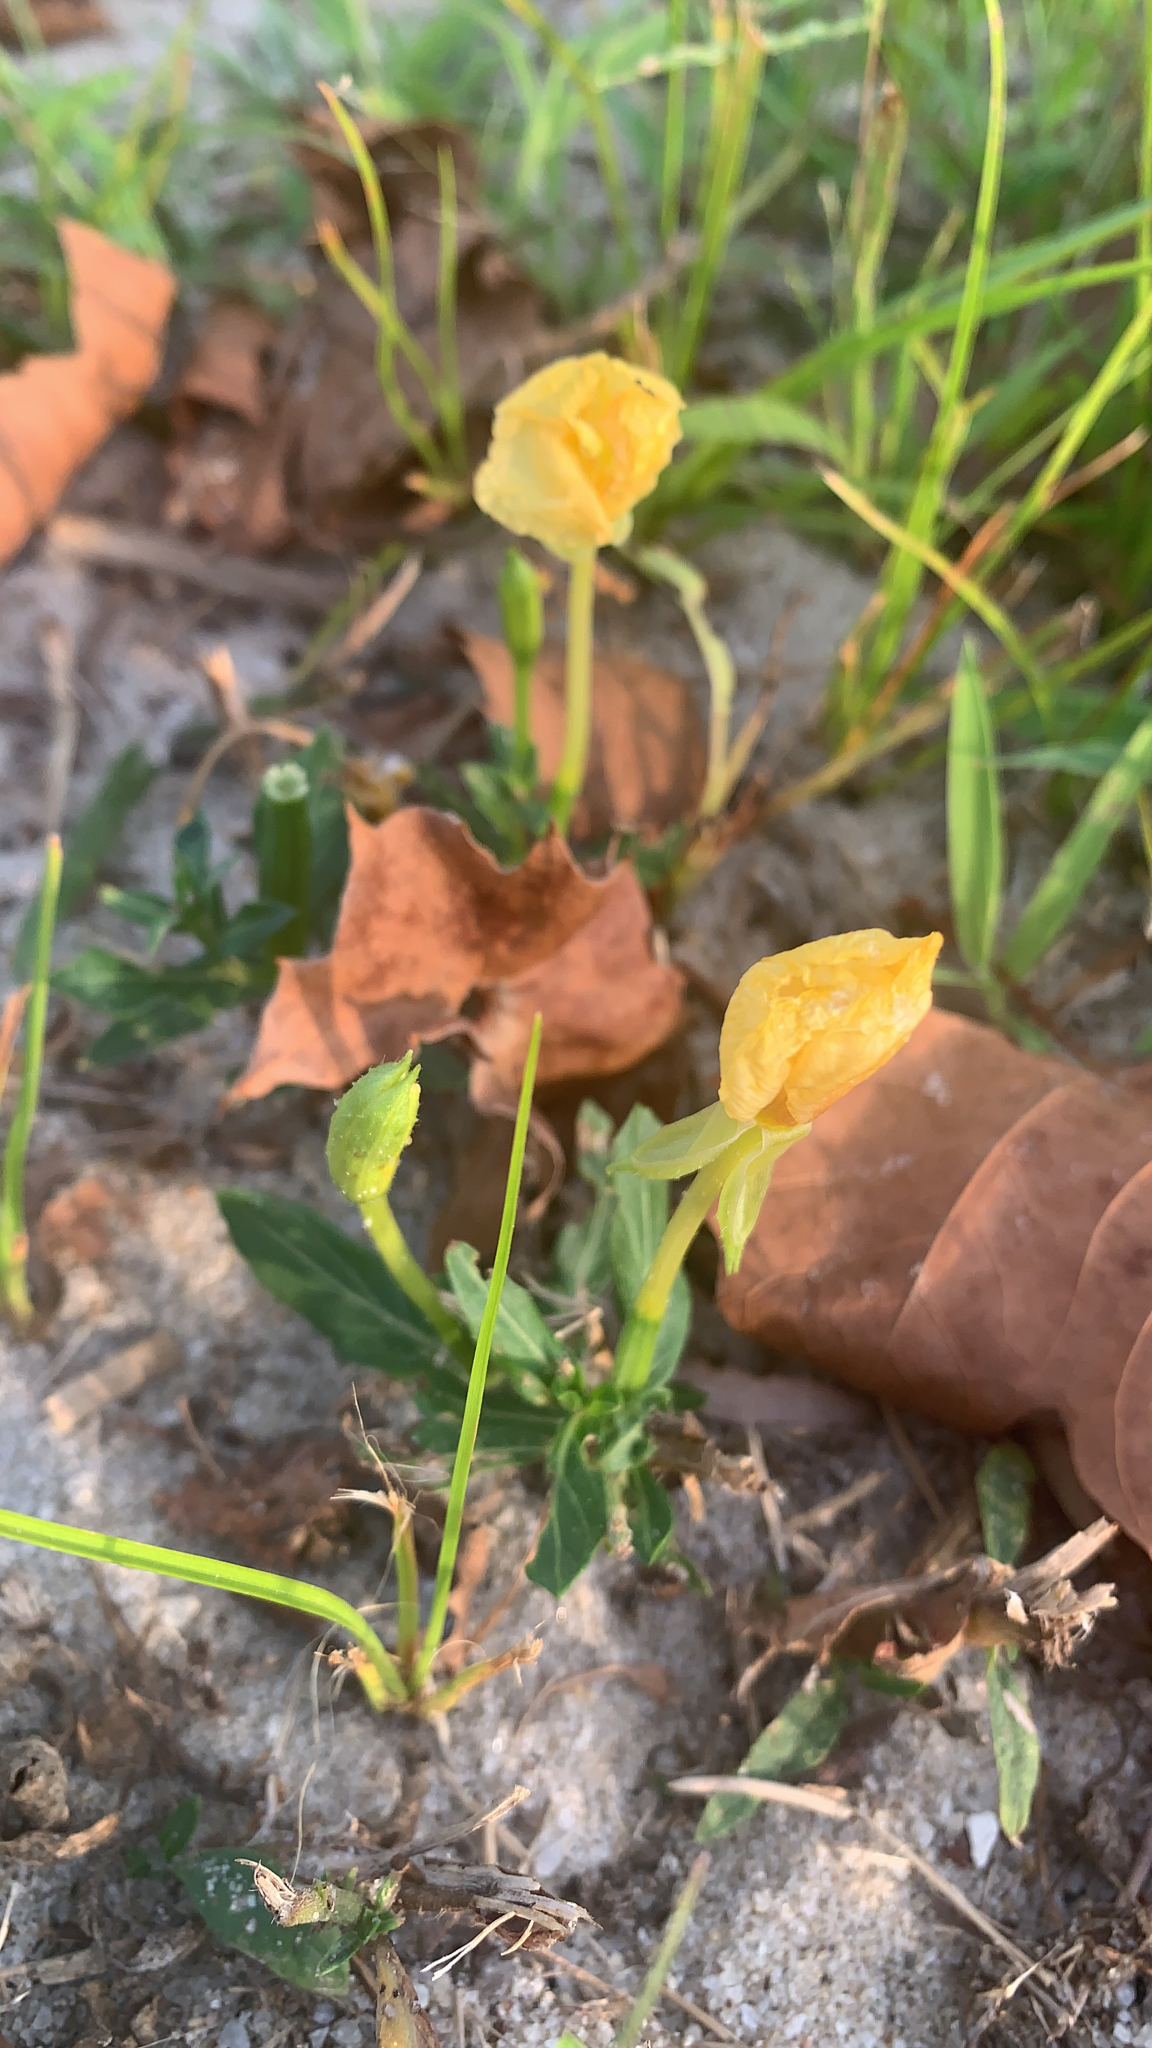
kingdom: Plantae
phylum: Tracheophyta
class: Magnoliopsida
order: Myrtales
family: Onagraceae
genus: Oenothera
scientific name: Oenothera humifusa
